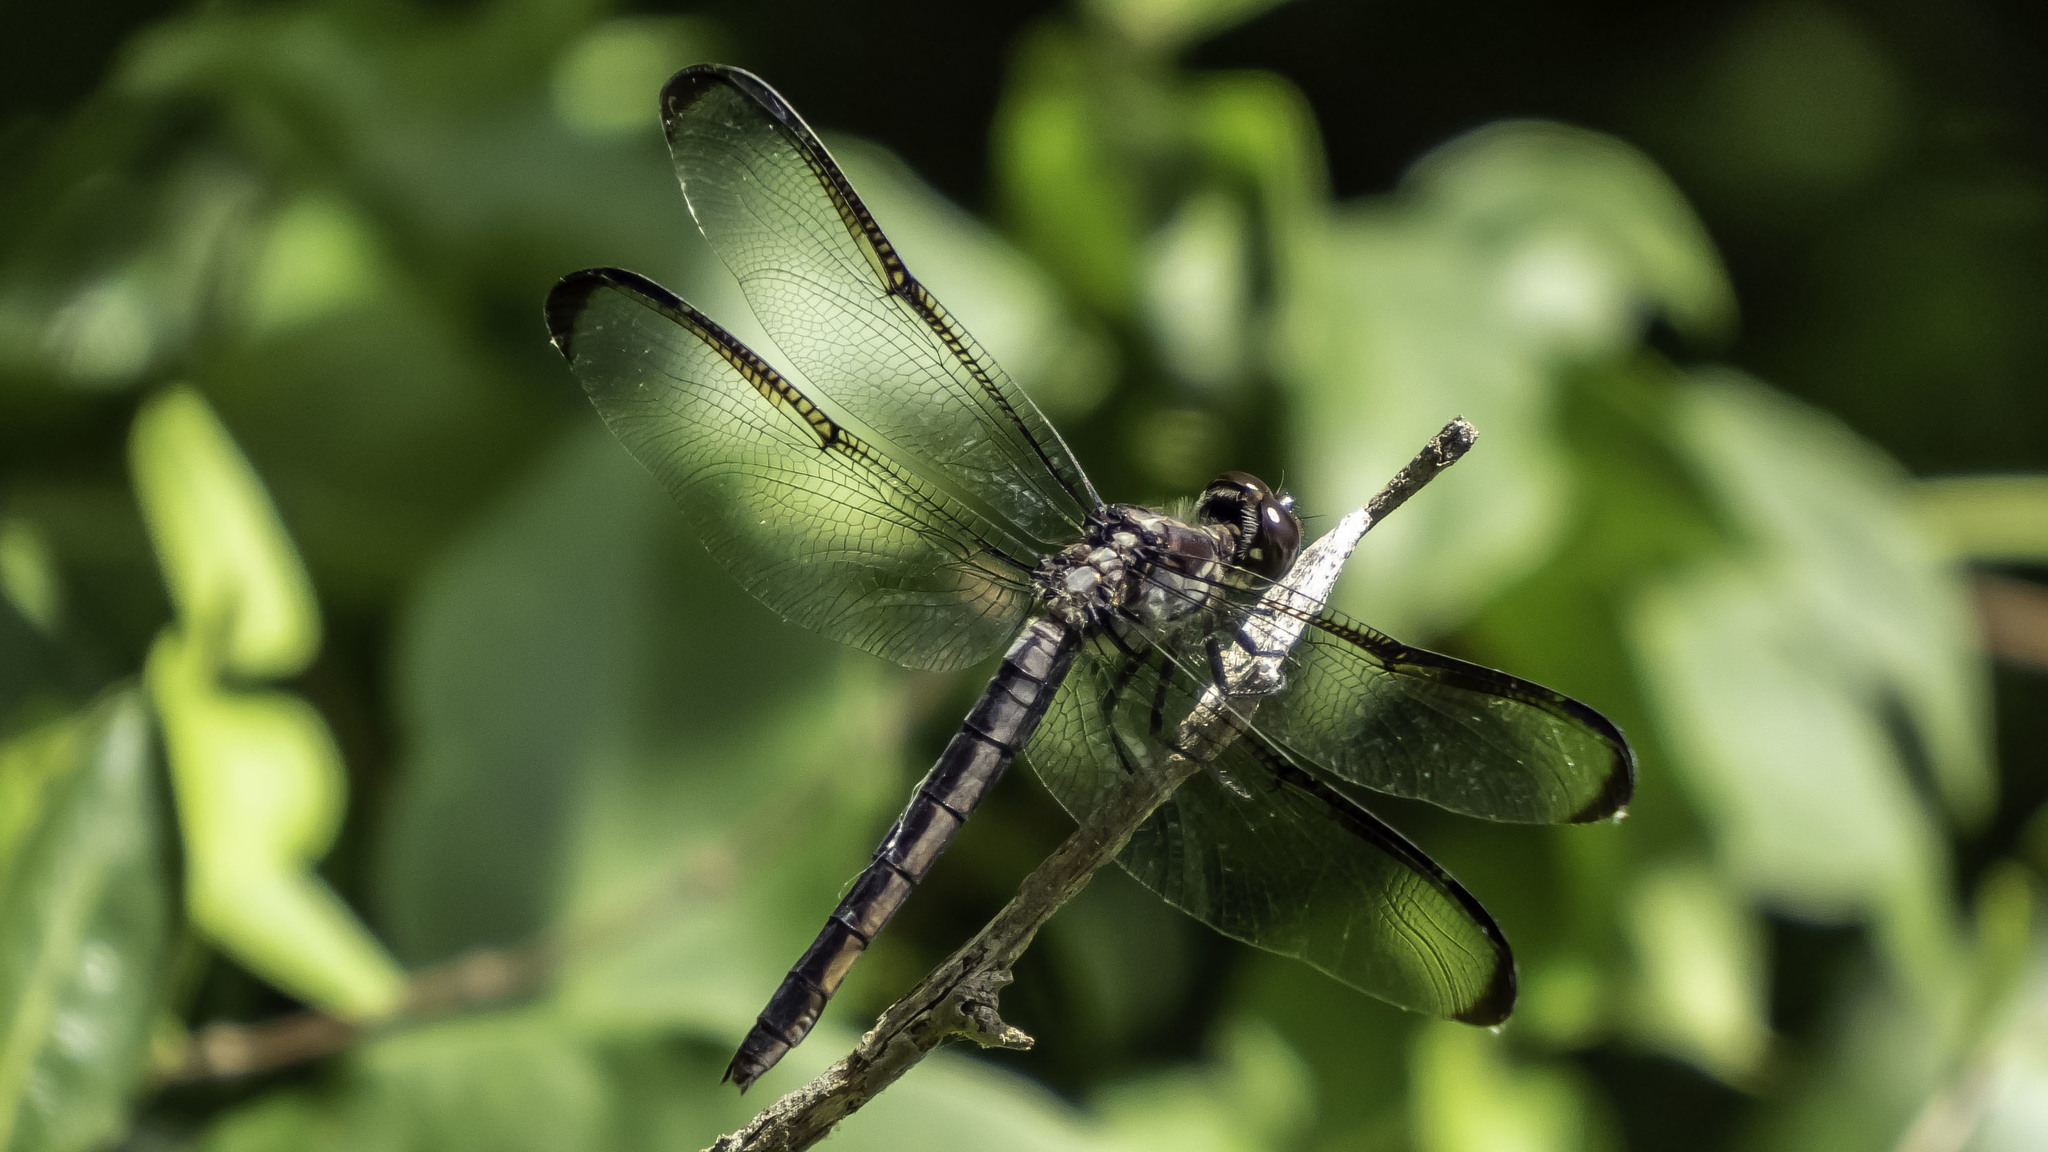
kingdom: Animalia
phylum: Arthropoda
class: Insecta
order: Odonata
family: Libellulidae
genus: Libellula
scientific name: Libellula incesta
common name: Slaty skimmer
